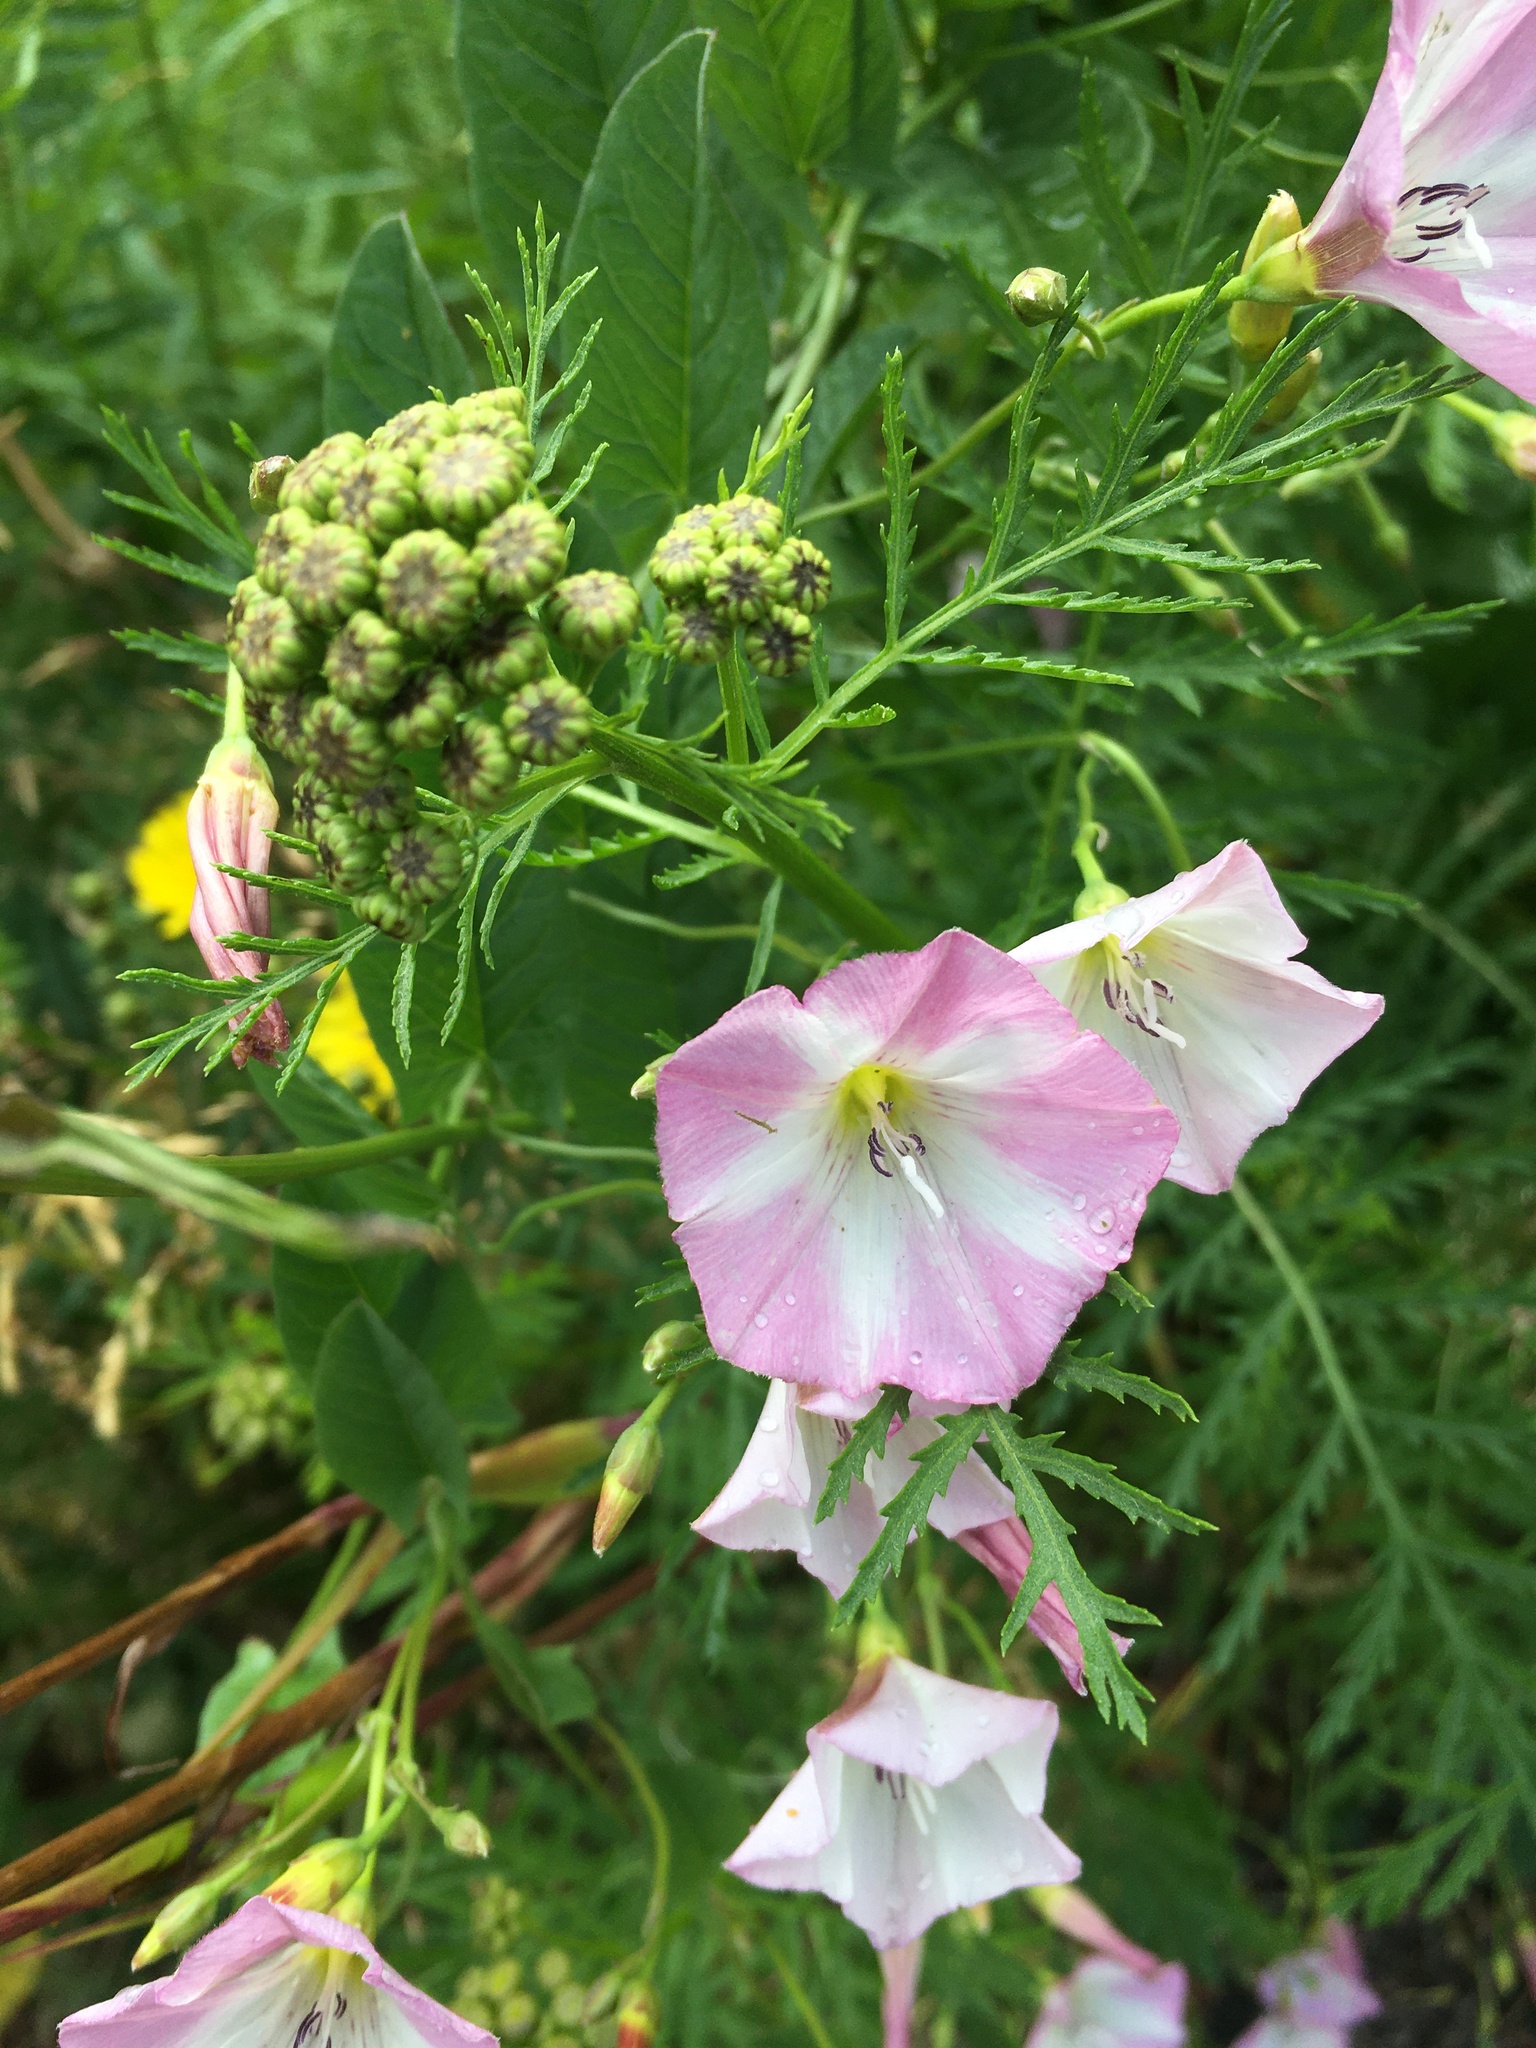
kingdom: Plantae
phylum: Tracheophyta
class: Magnoliopsida
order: Solanales
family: Convolvulaceae
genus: Convolvulus
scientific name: Convolvulus arvensis
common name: Field bindweed
